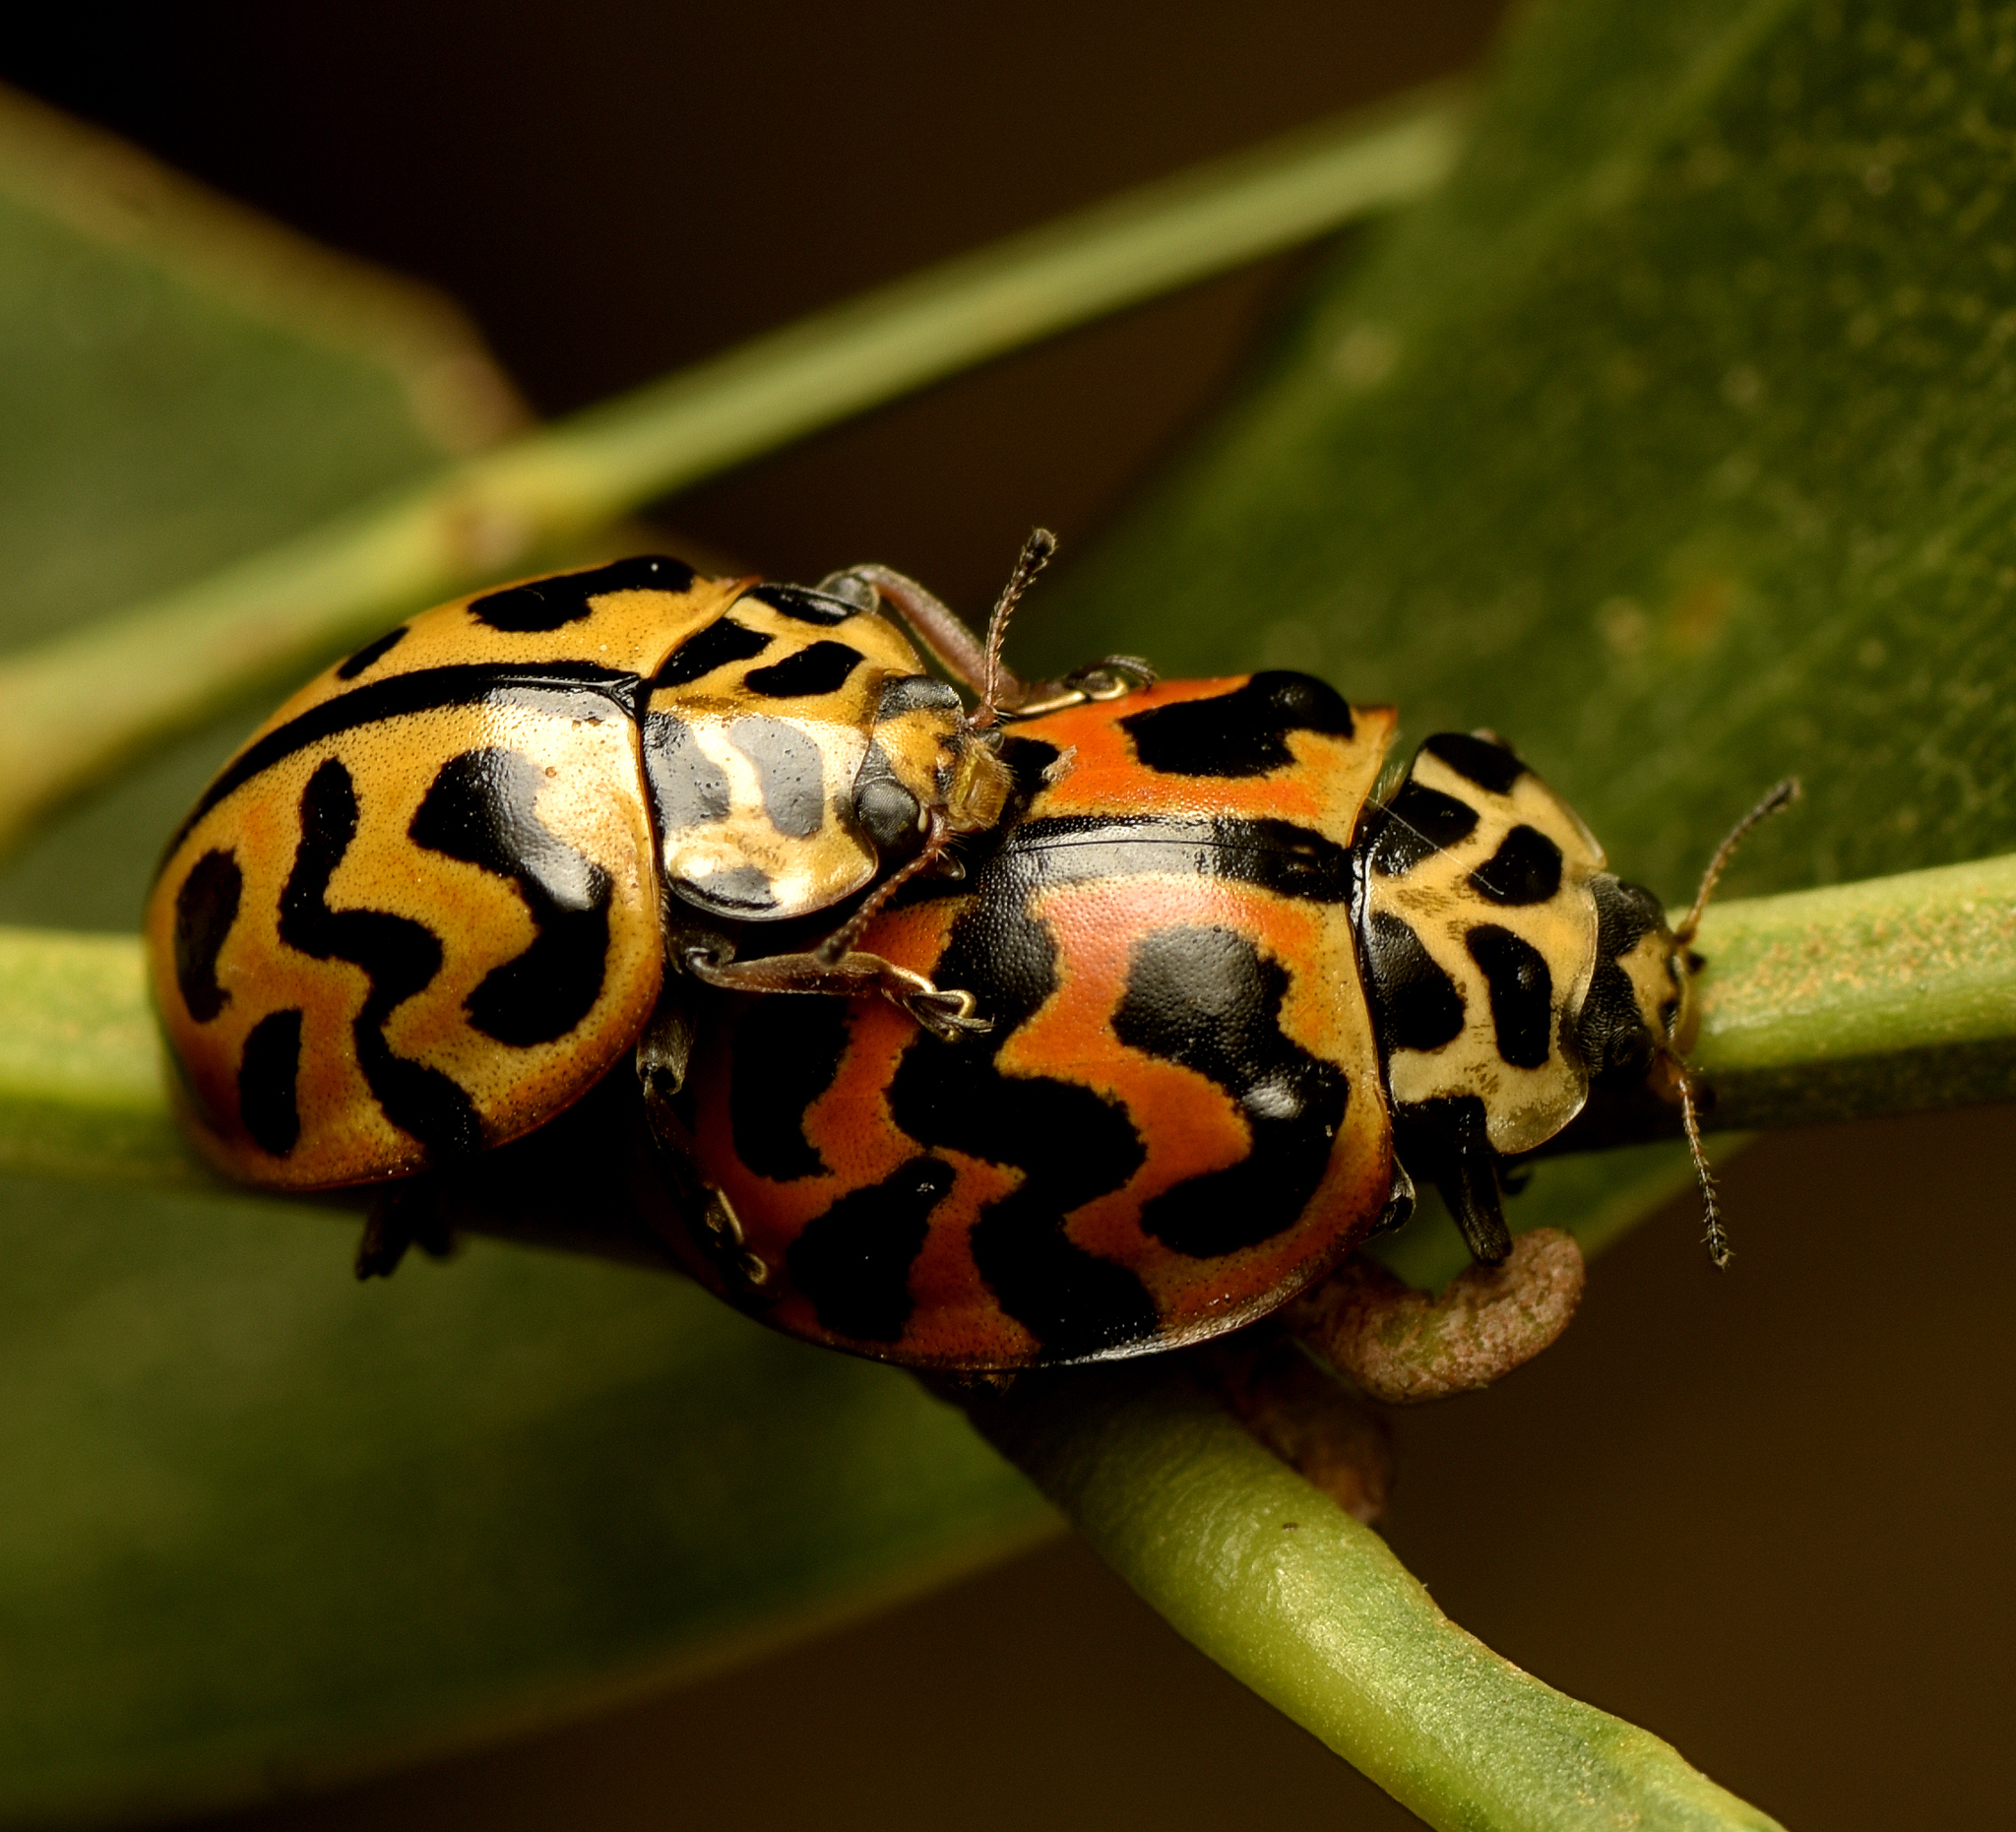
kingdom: Animalia
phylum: Arthropoda
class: Insecta
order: Coleoptera
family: Coccinellidae
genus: Cleobora
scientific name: Cleobora
